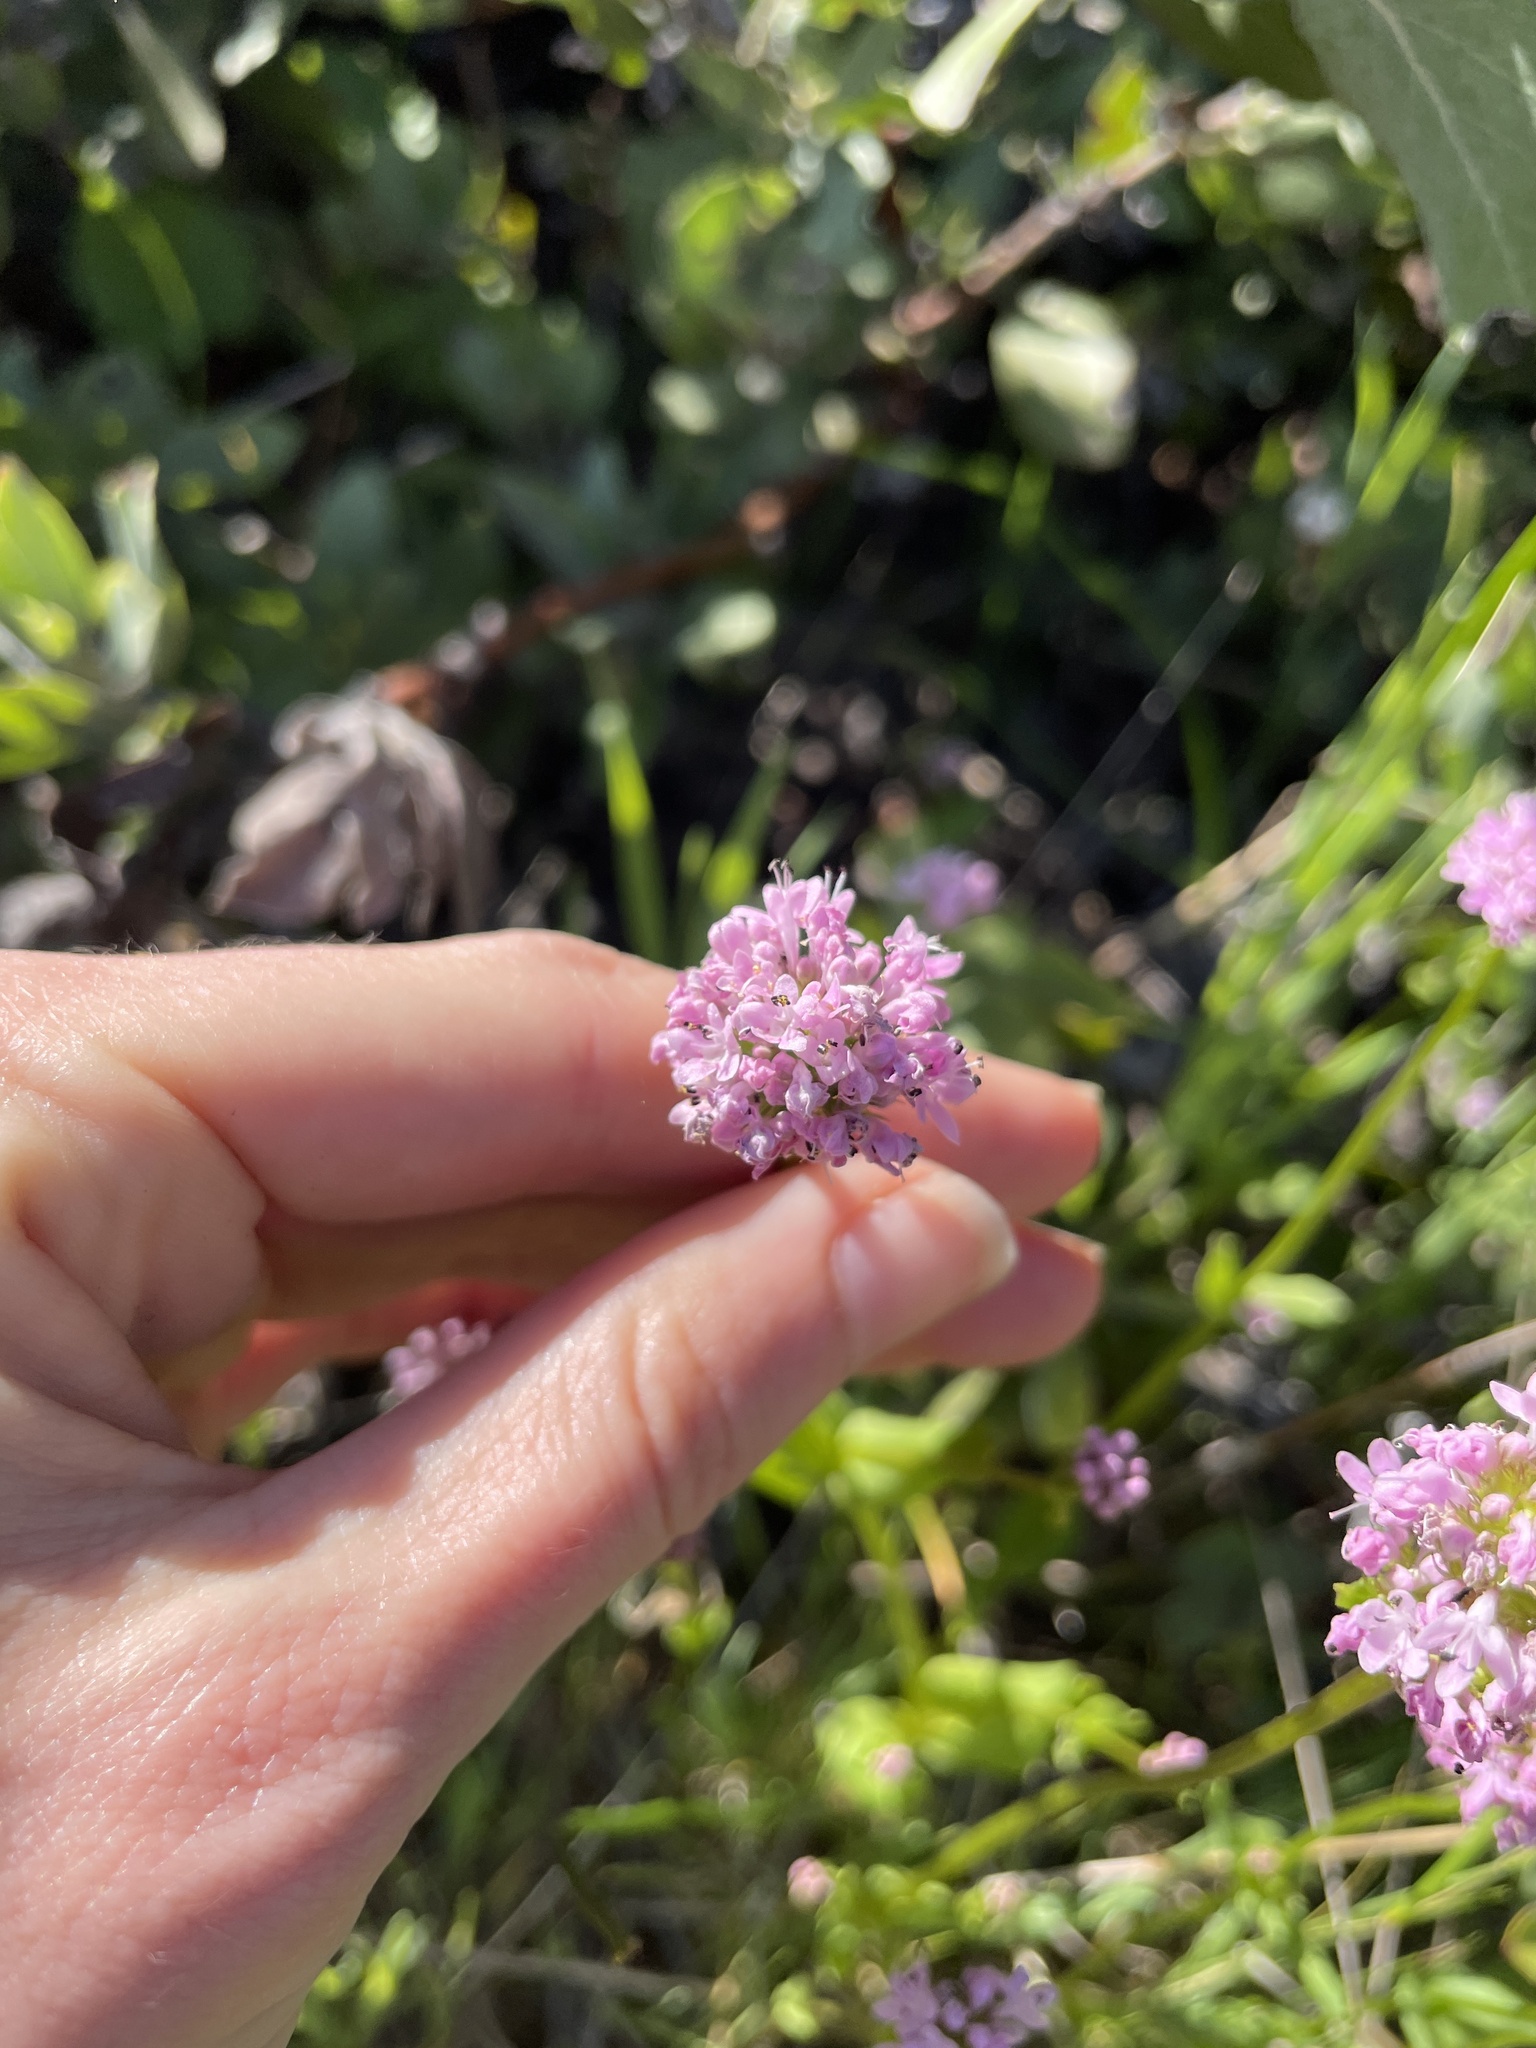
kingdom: Plantae
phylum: Tracheophyta
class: Magnoliopsida
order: Dipsacales
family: Caprifoliaceae
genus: Plectritis
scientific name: Plectritis congesta
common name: Pink plectritis
